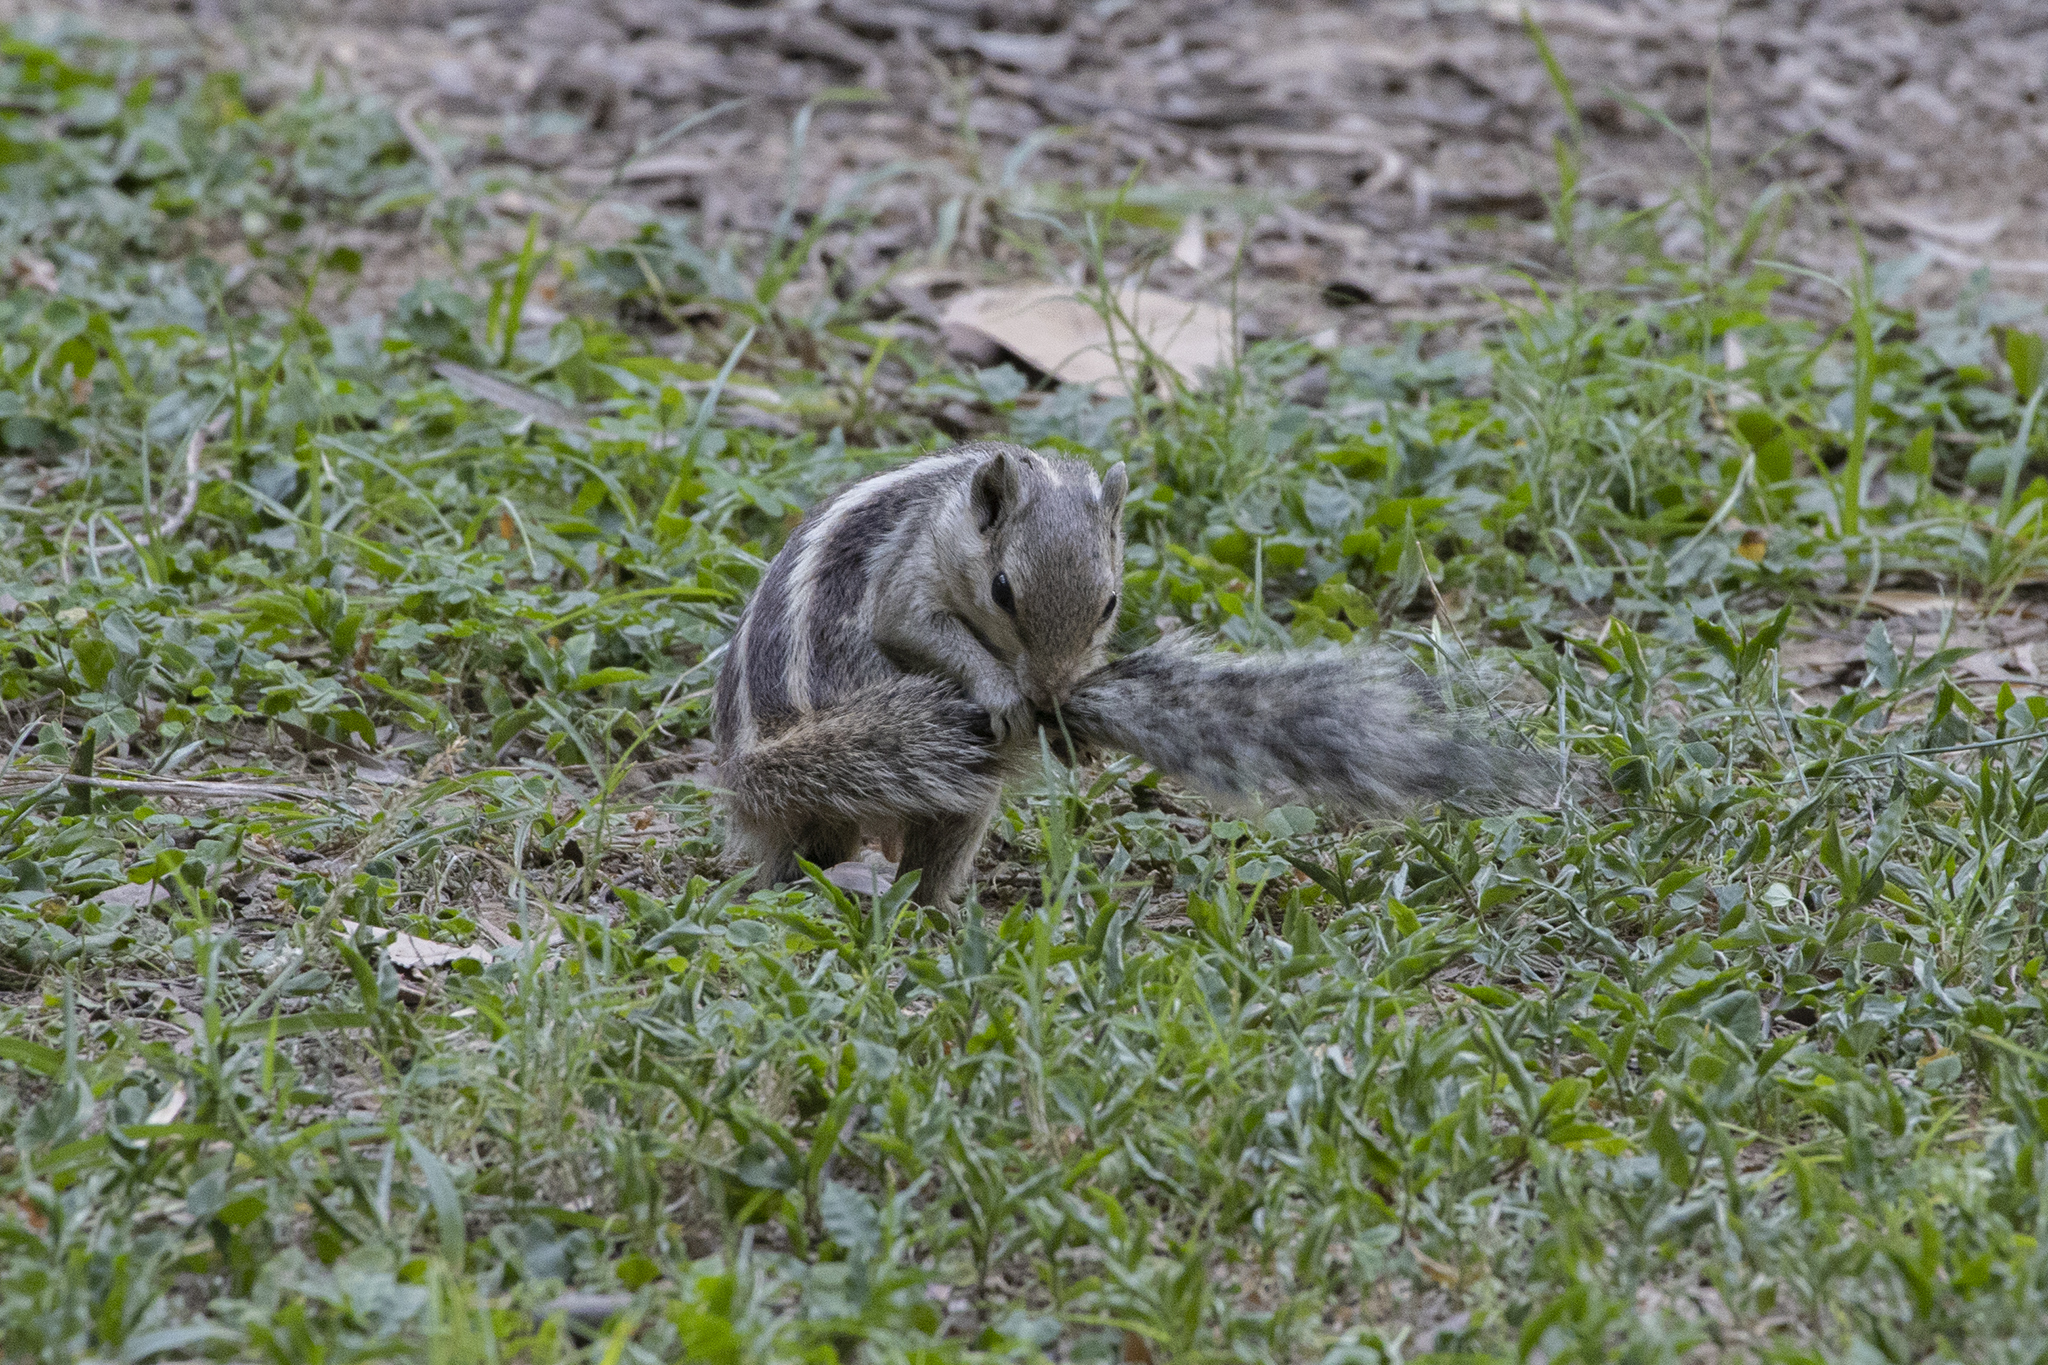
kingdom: Animalia
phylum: Chordata
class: Mammalia
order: Rodentia
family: Sciuridae
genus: Funambulus
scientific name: Funambulus pennantii
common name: Northern palm squirrel
